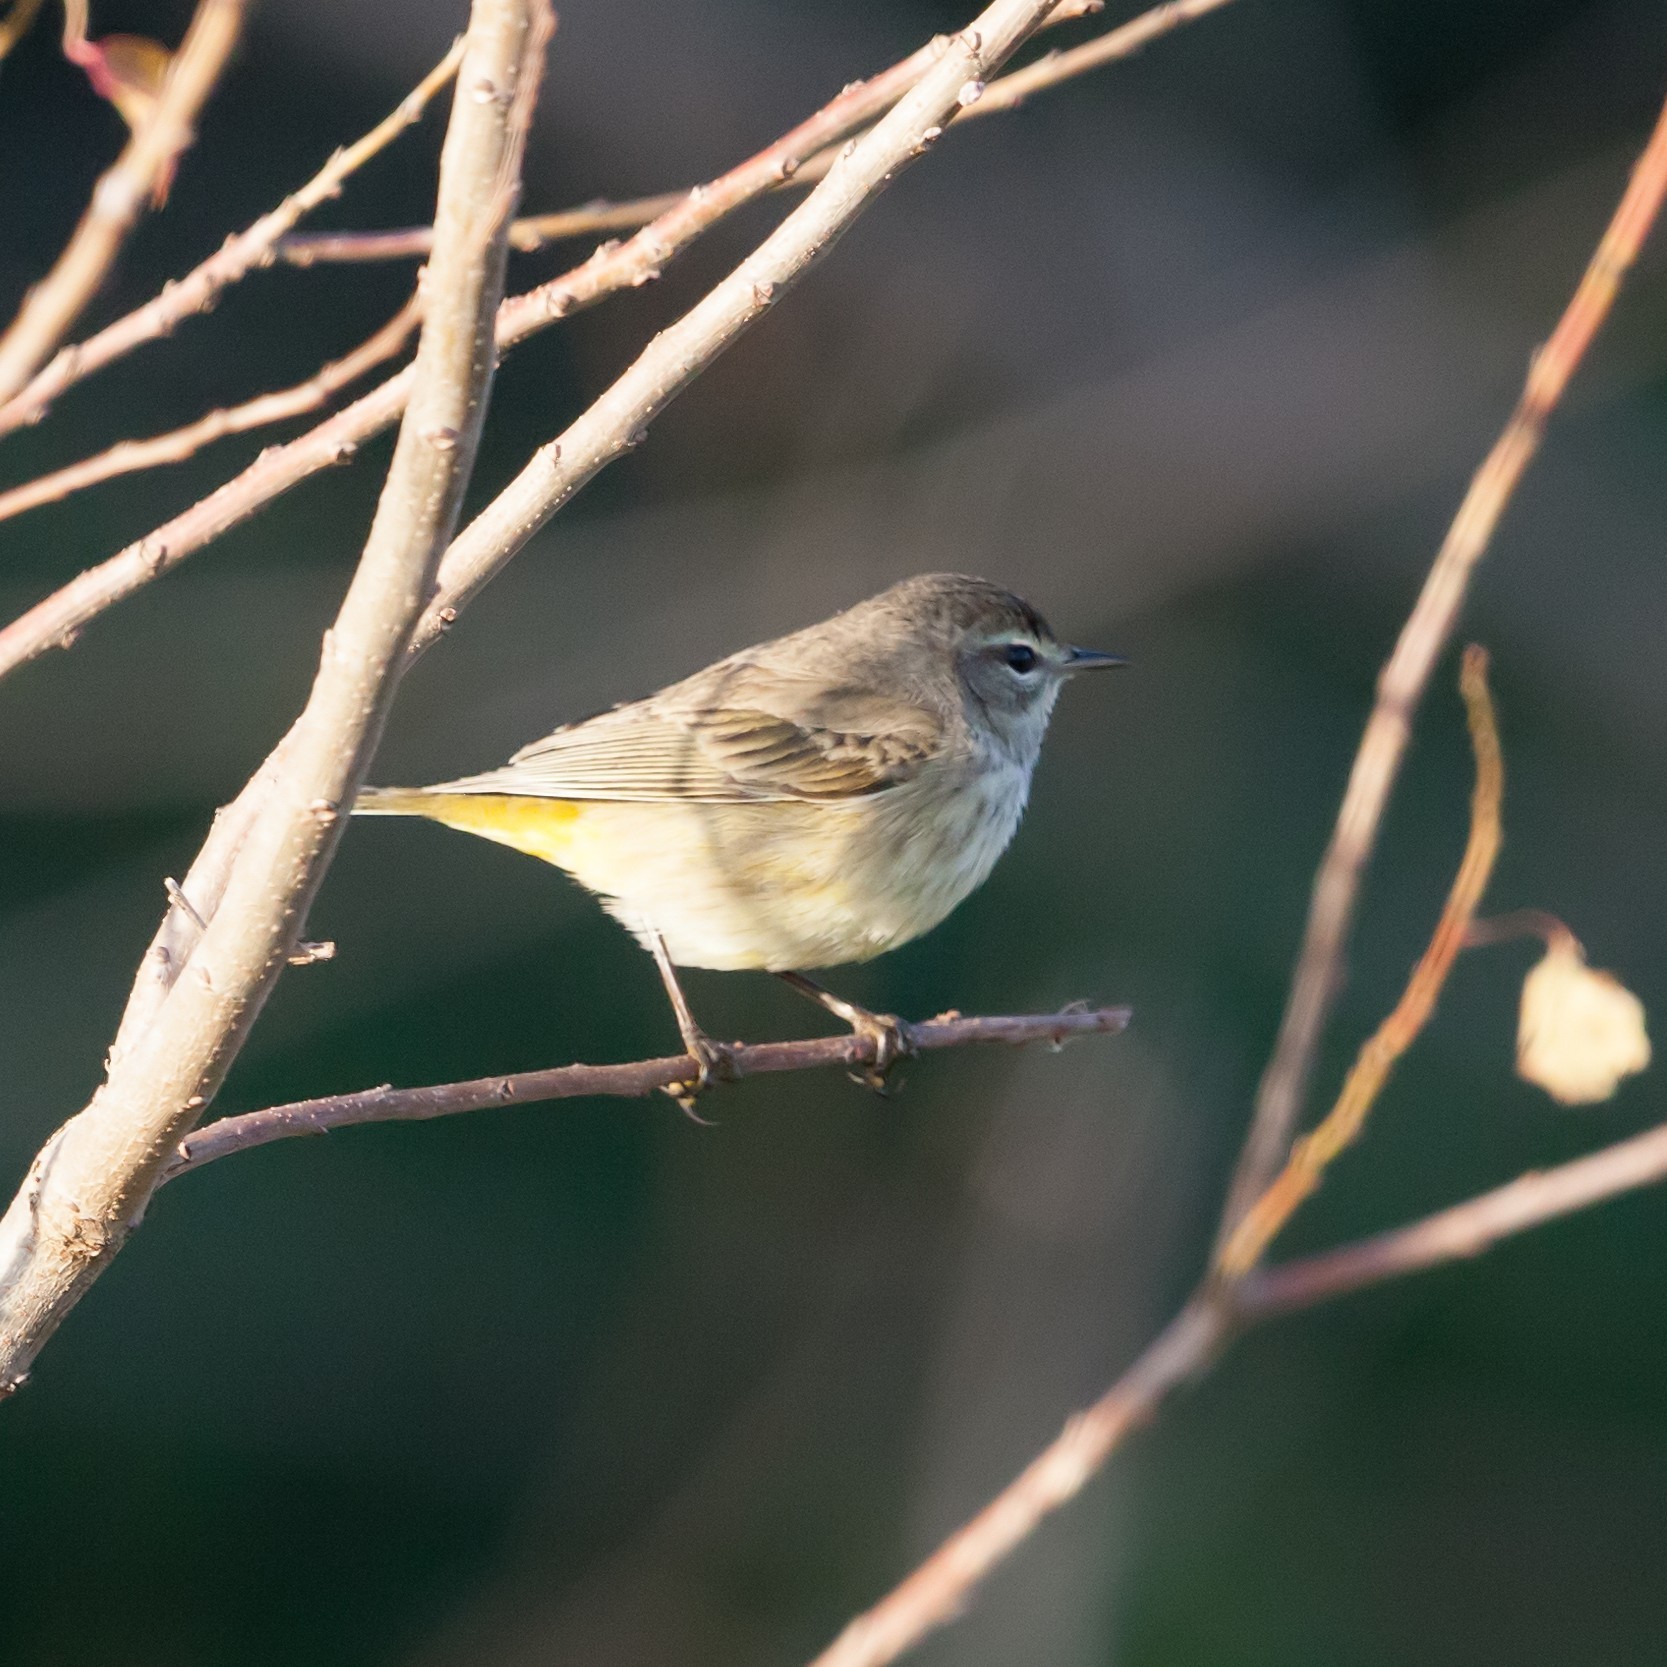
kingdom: Animalia
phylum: Chordata
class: Aves
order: Passeriformes
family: Parulidae
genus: Setophaga
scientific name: Setophaga palmarum
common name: Palm warbler
